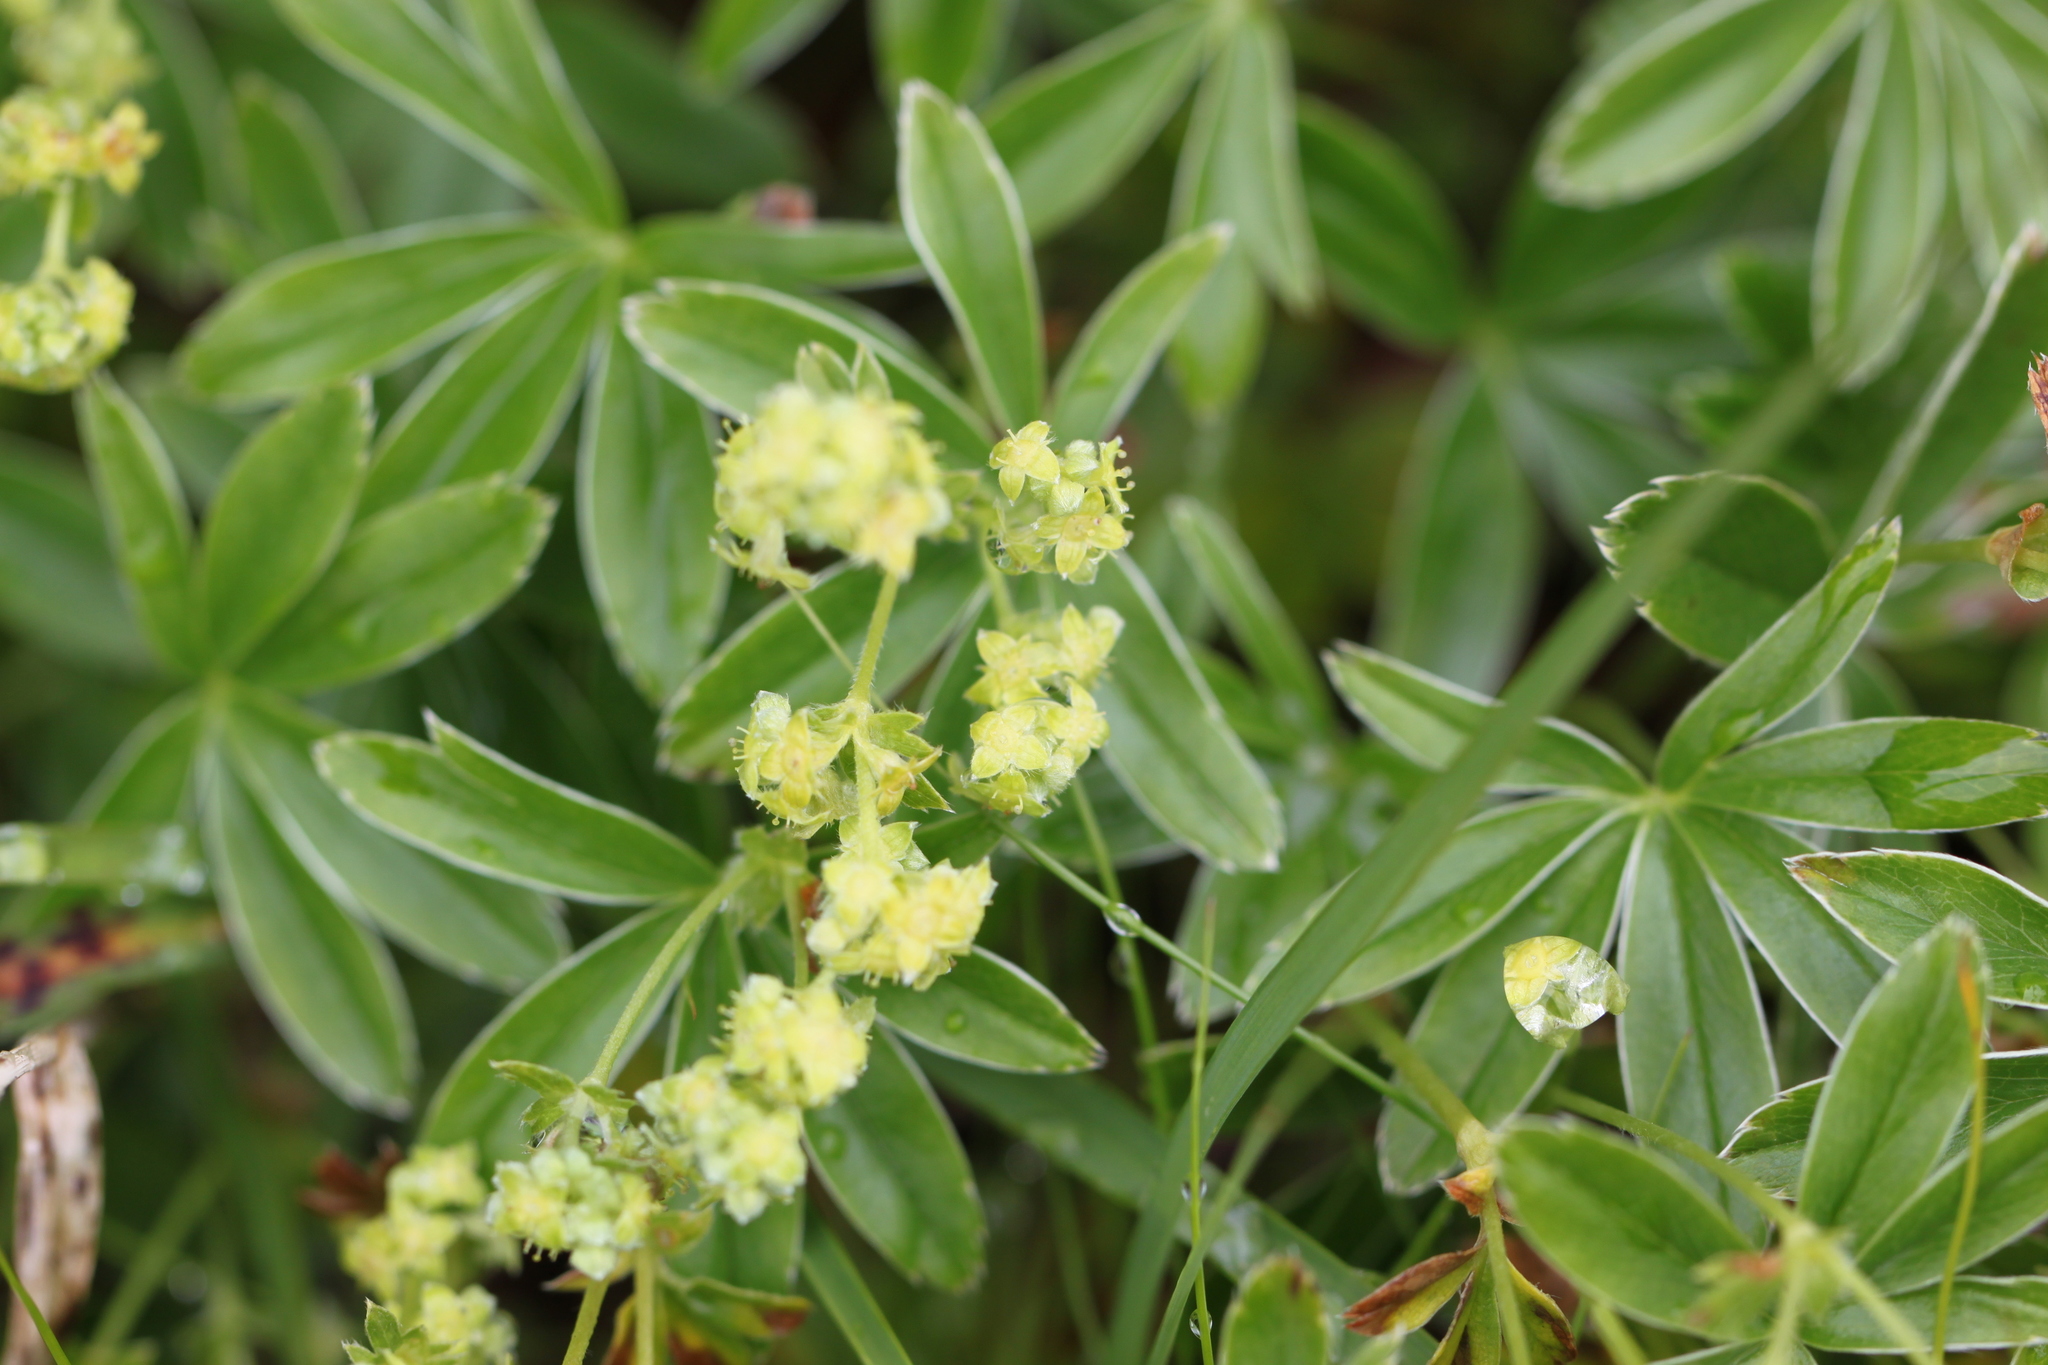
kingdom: Plantae
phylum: Tracheophyta
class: Magnoliopsida
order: Rosales
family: Rosaceae
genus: Alchemilla
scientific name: Alchemilla alpina
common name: Alpine lady's-mantle
